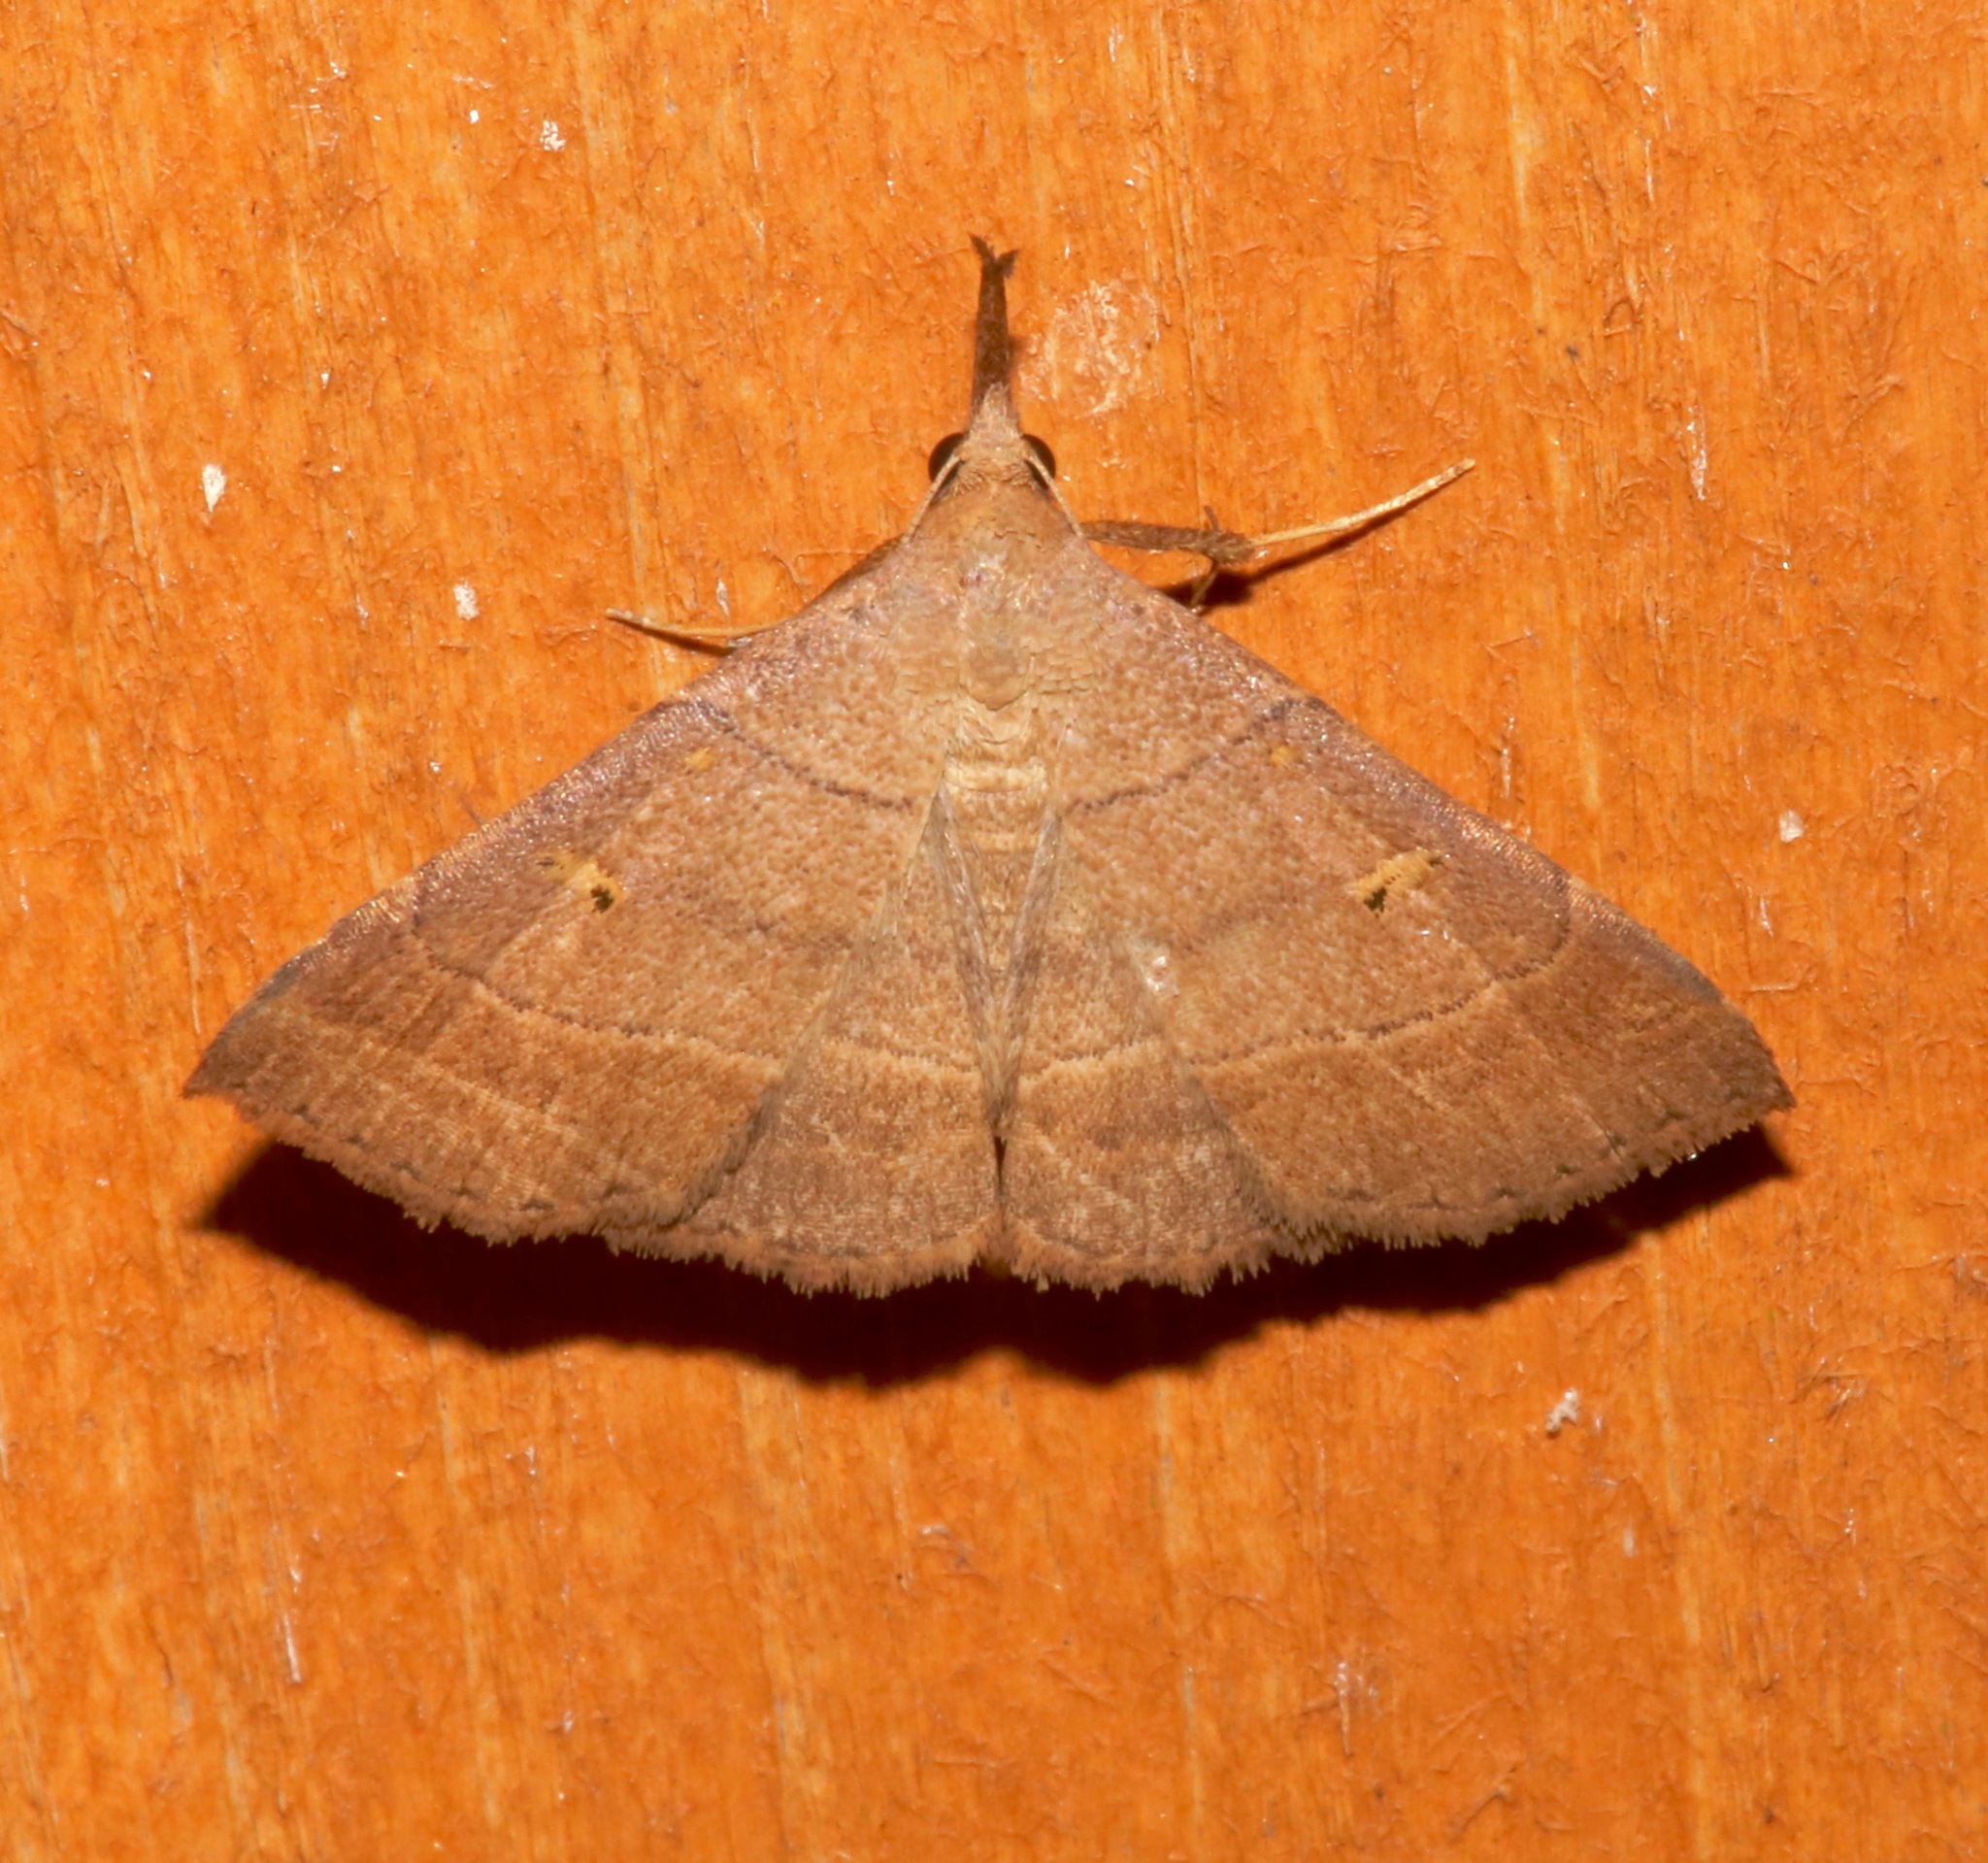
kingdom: Animalia
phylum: Arthropoda
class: Insecta
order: Lepidoptera
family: Erebidae
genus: Renia
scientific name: Renia flavipunctalis
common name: Yellow-spotted renia moth
